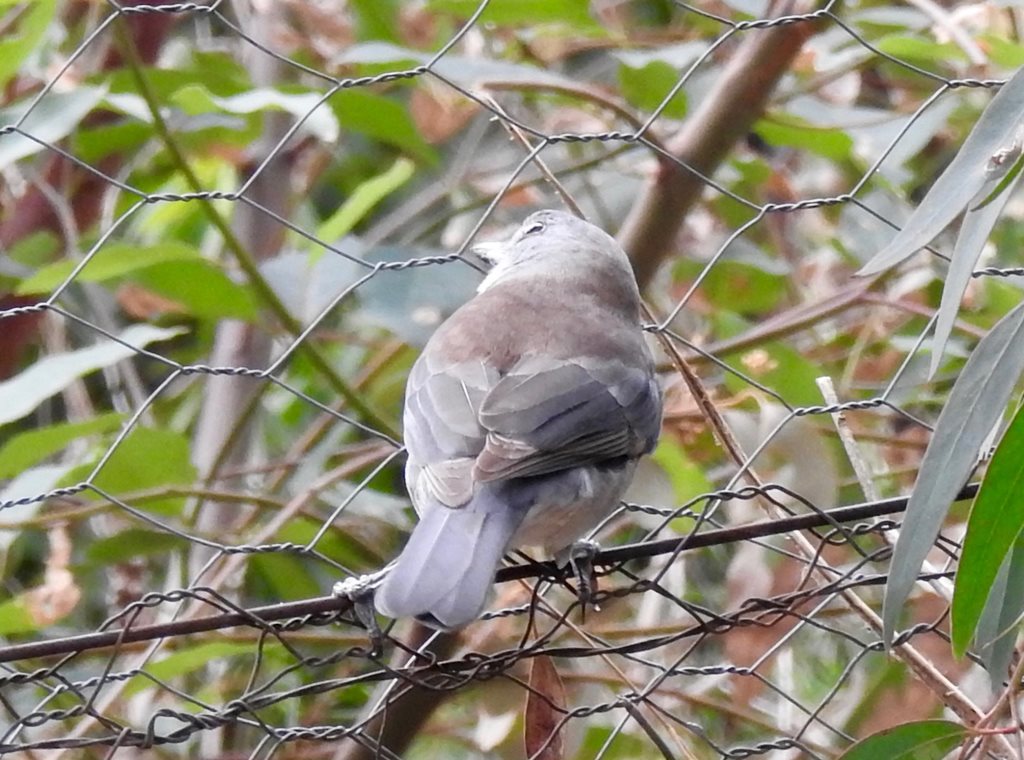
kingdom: Animalia
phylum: Chordata
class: Aves
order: Passeriformes
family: Pachycephalidae
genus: Colluricincla
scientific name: Colluricincla harmonica
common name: Grey shrikethrush
